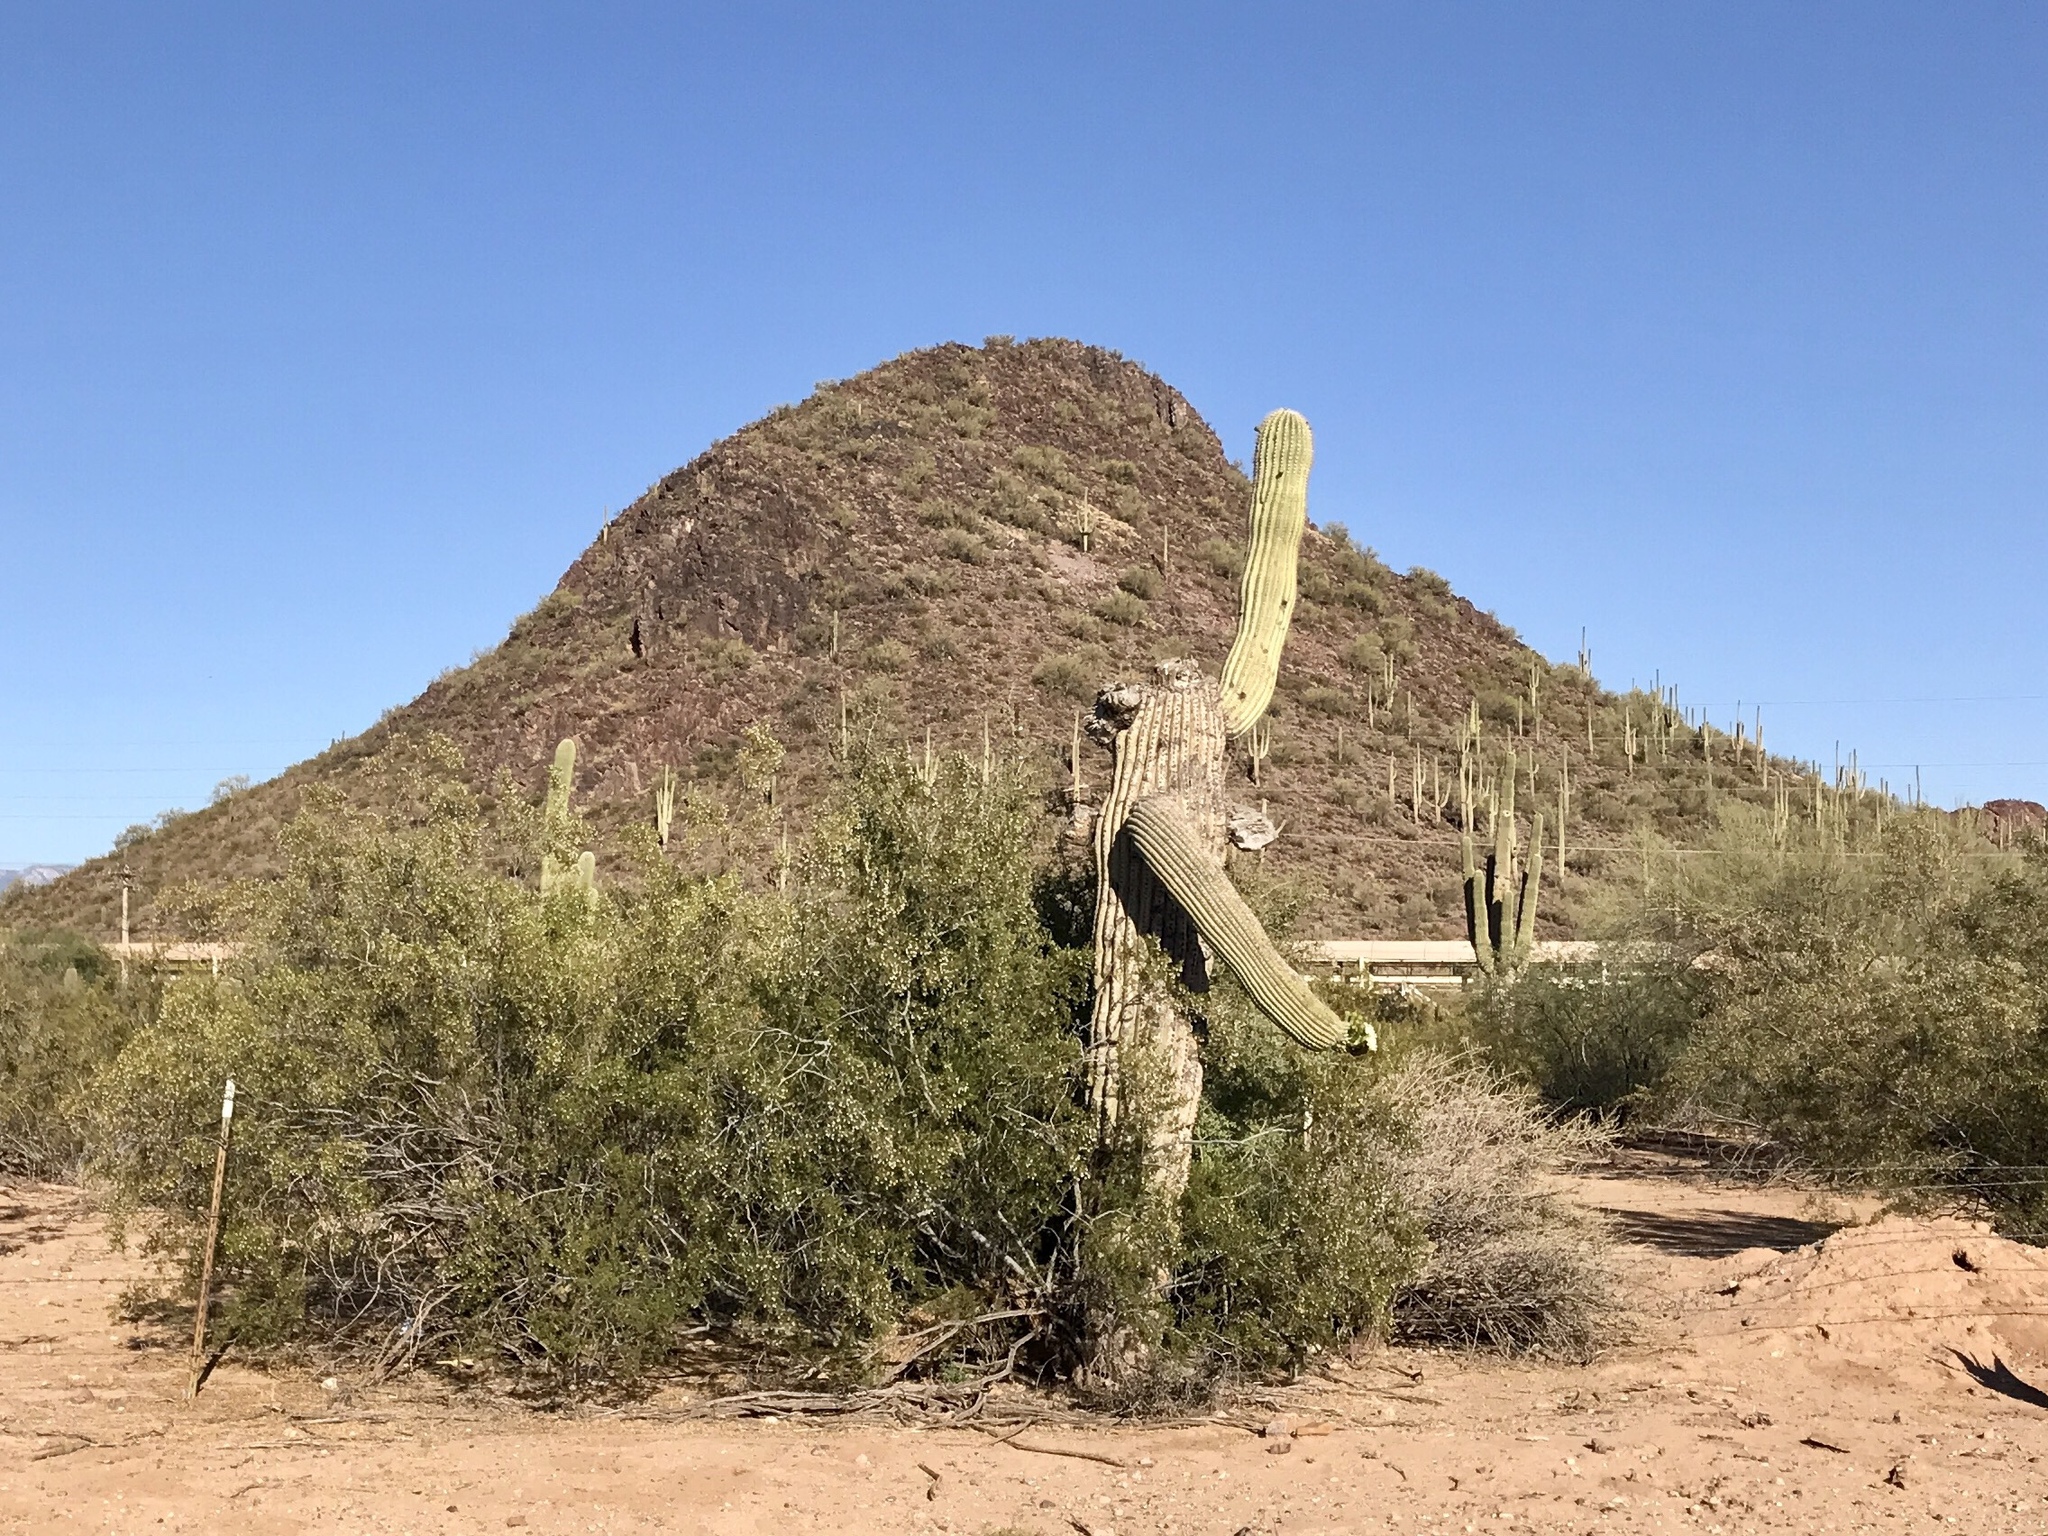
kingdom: Plantae
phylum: Tracheophyta
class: Magnoliopsida
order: Caryophyllales
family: Cactaceae
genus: Carnegiea
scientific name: Carnegiea gigantea
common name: Saguaro
